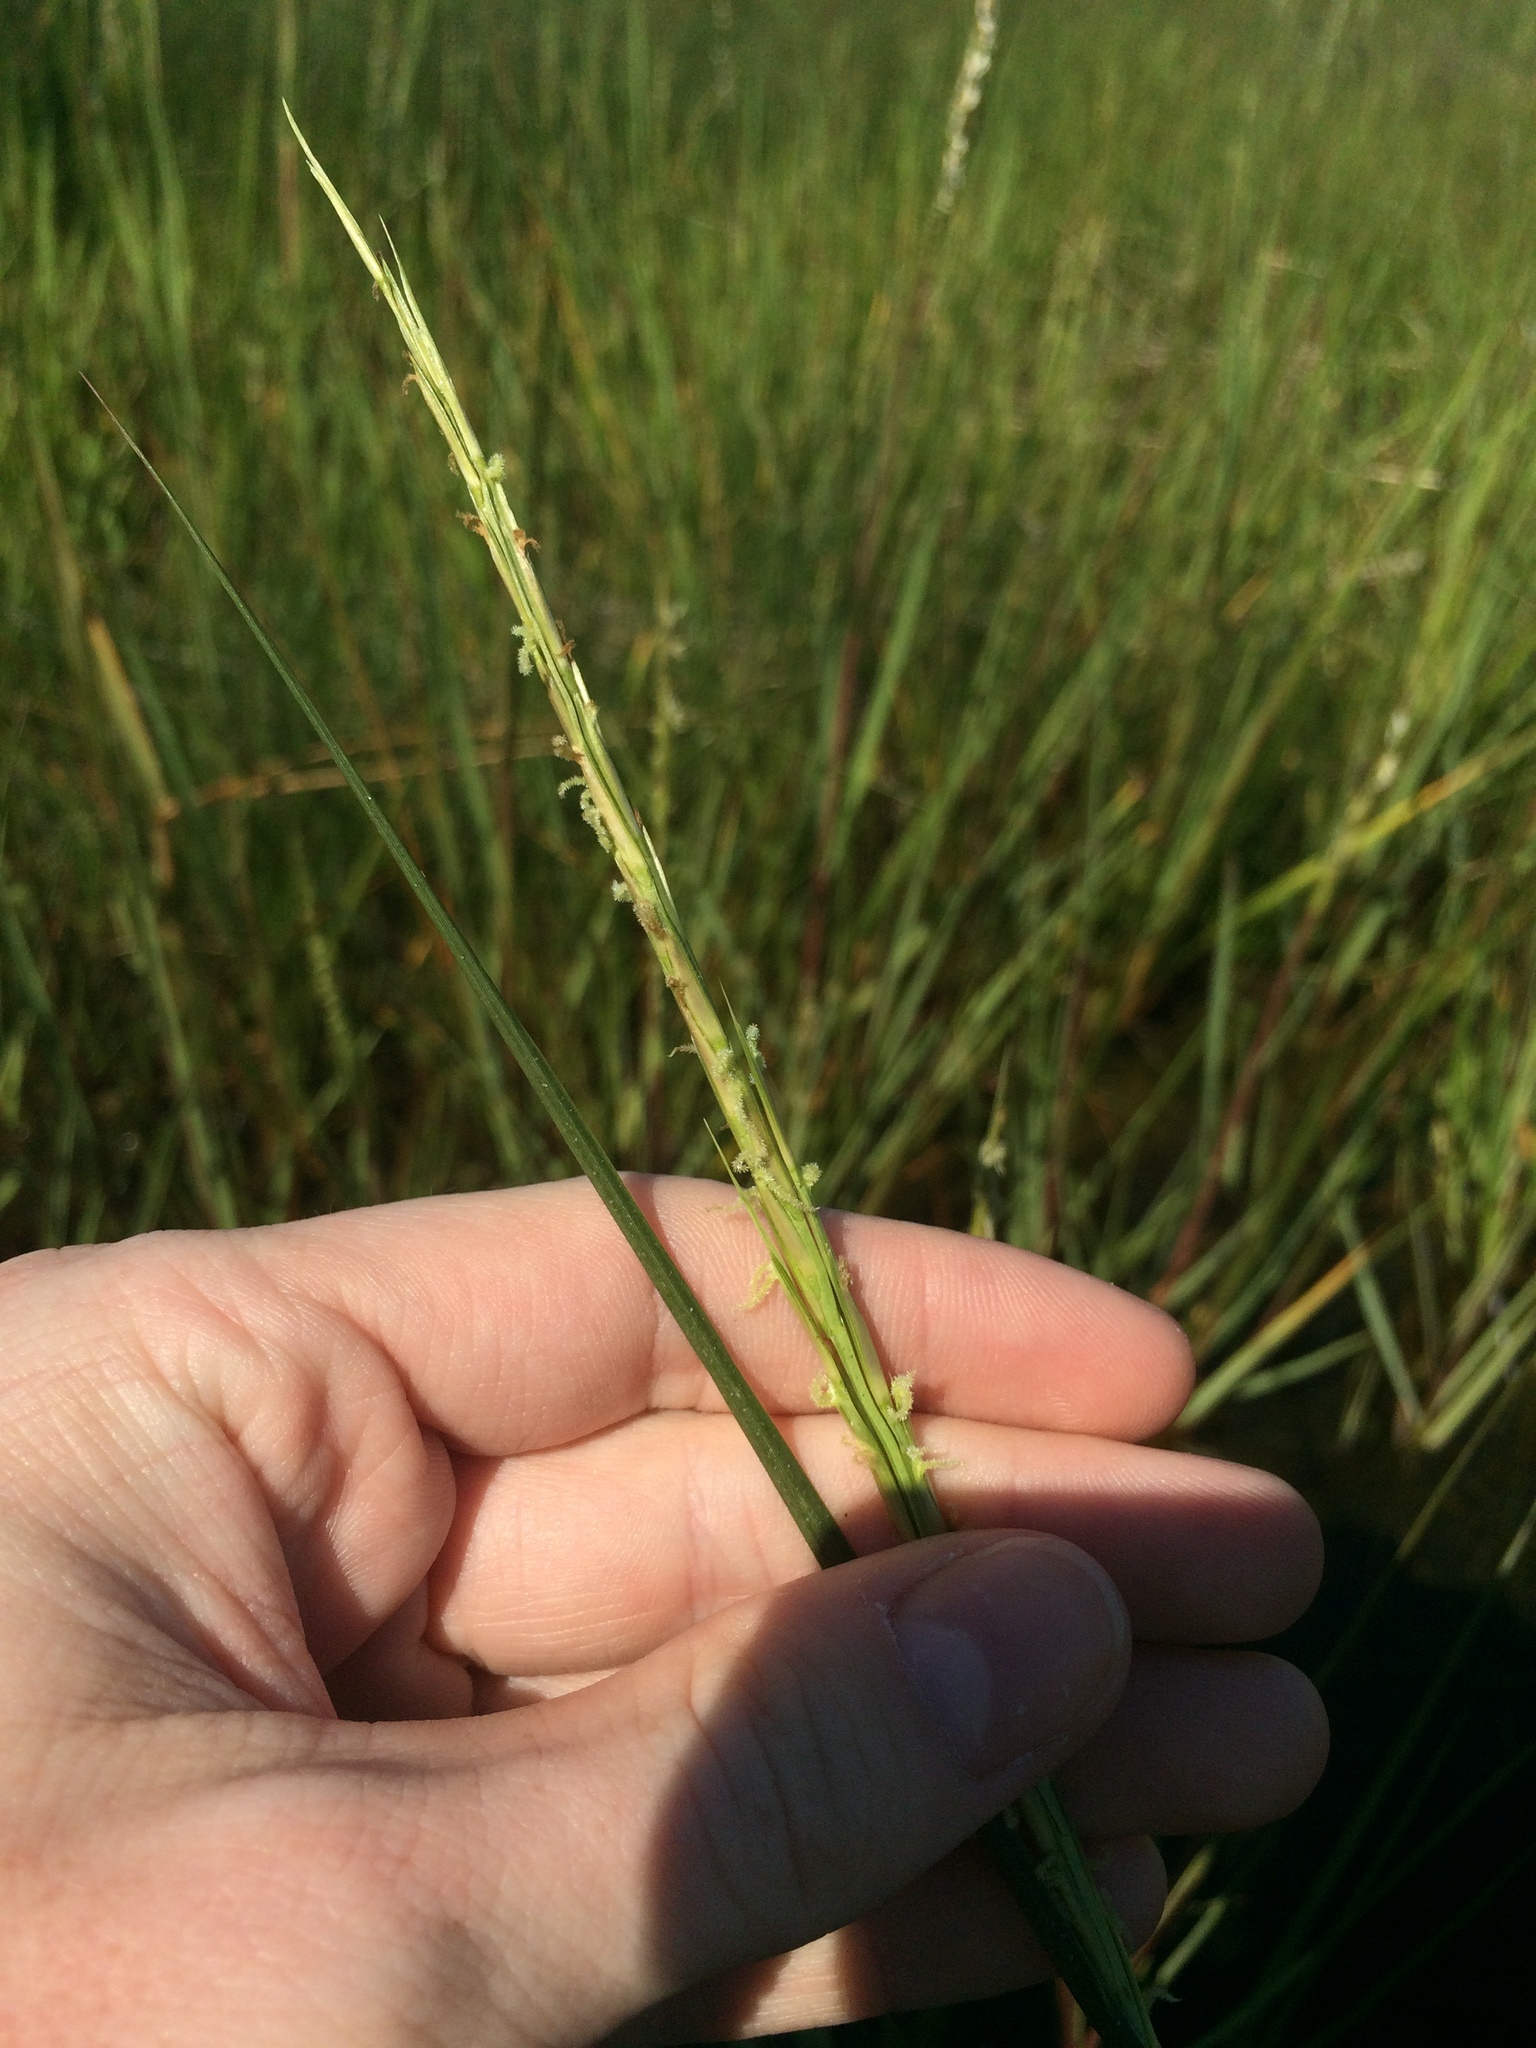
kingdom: Plantae
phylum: Tracheophyta
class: Liliopsida
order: Poales
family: Poaceae
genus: Sporobolus
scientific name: Sporobolus alterniflorus
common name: Atlantic cordgrass
